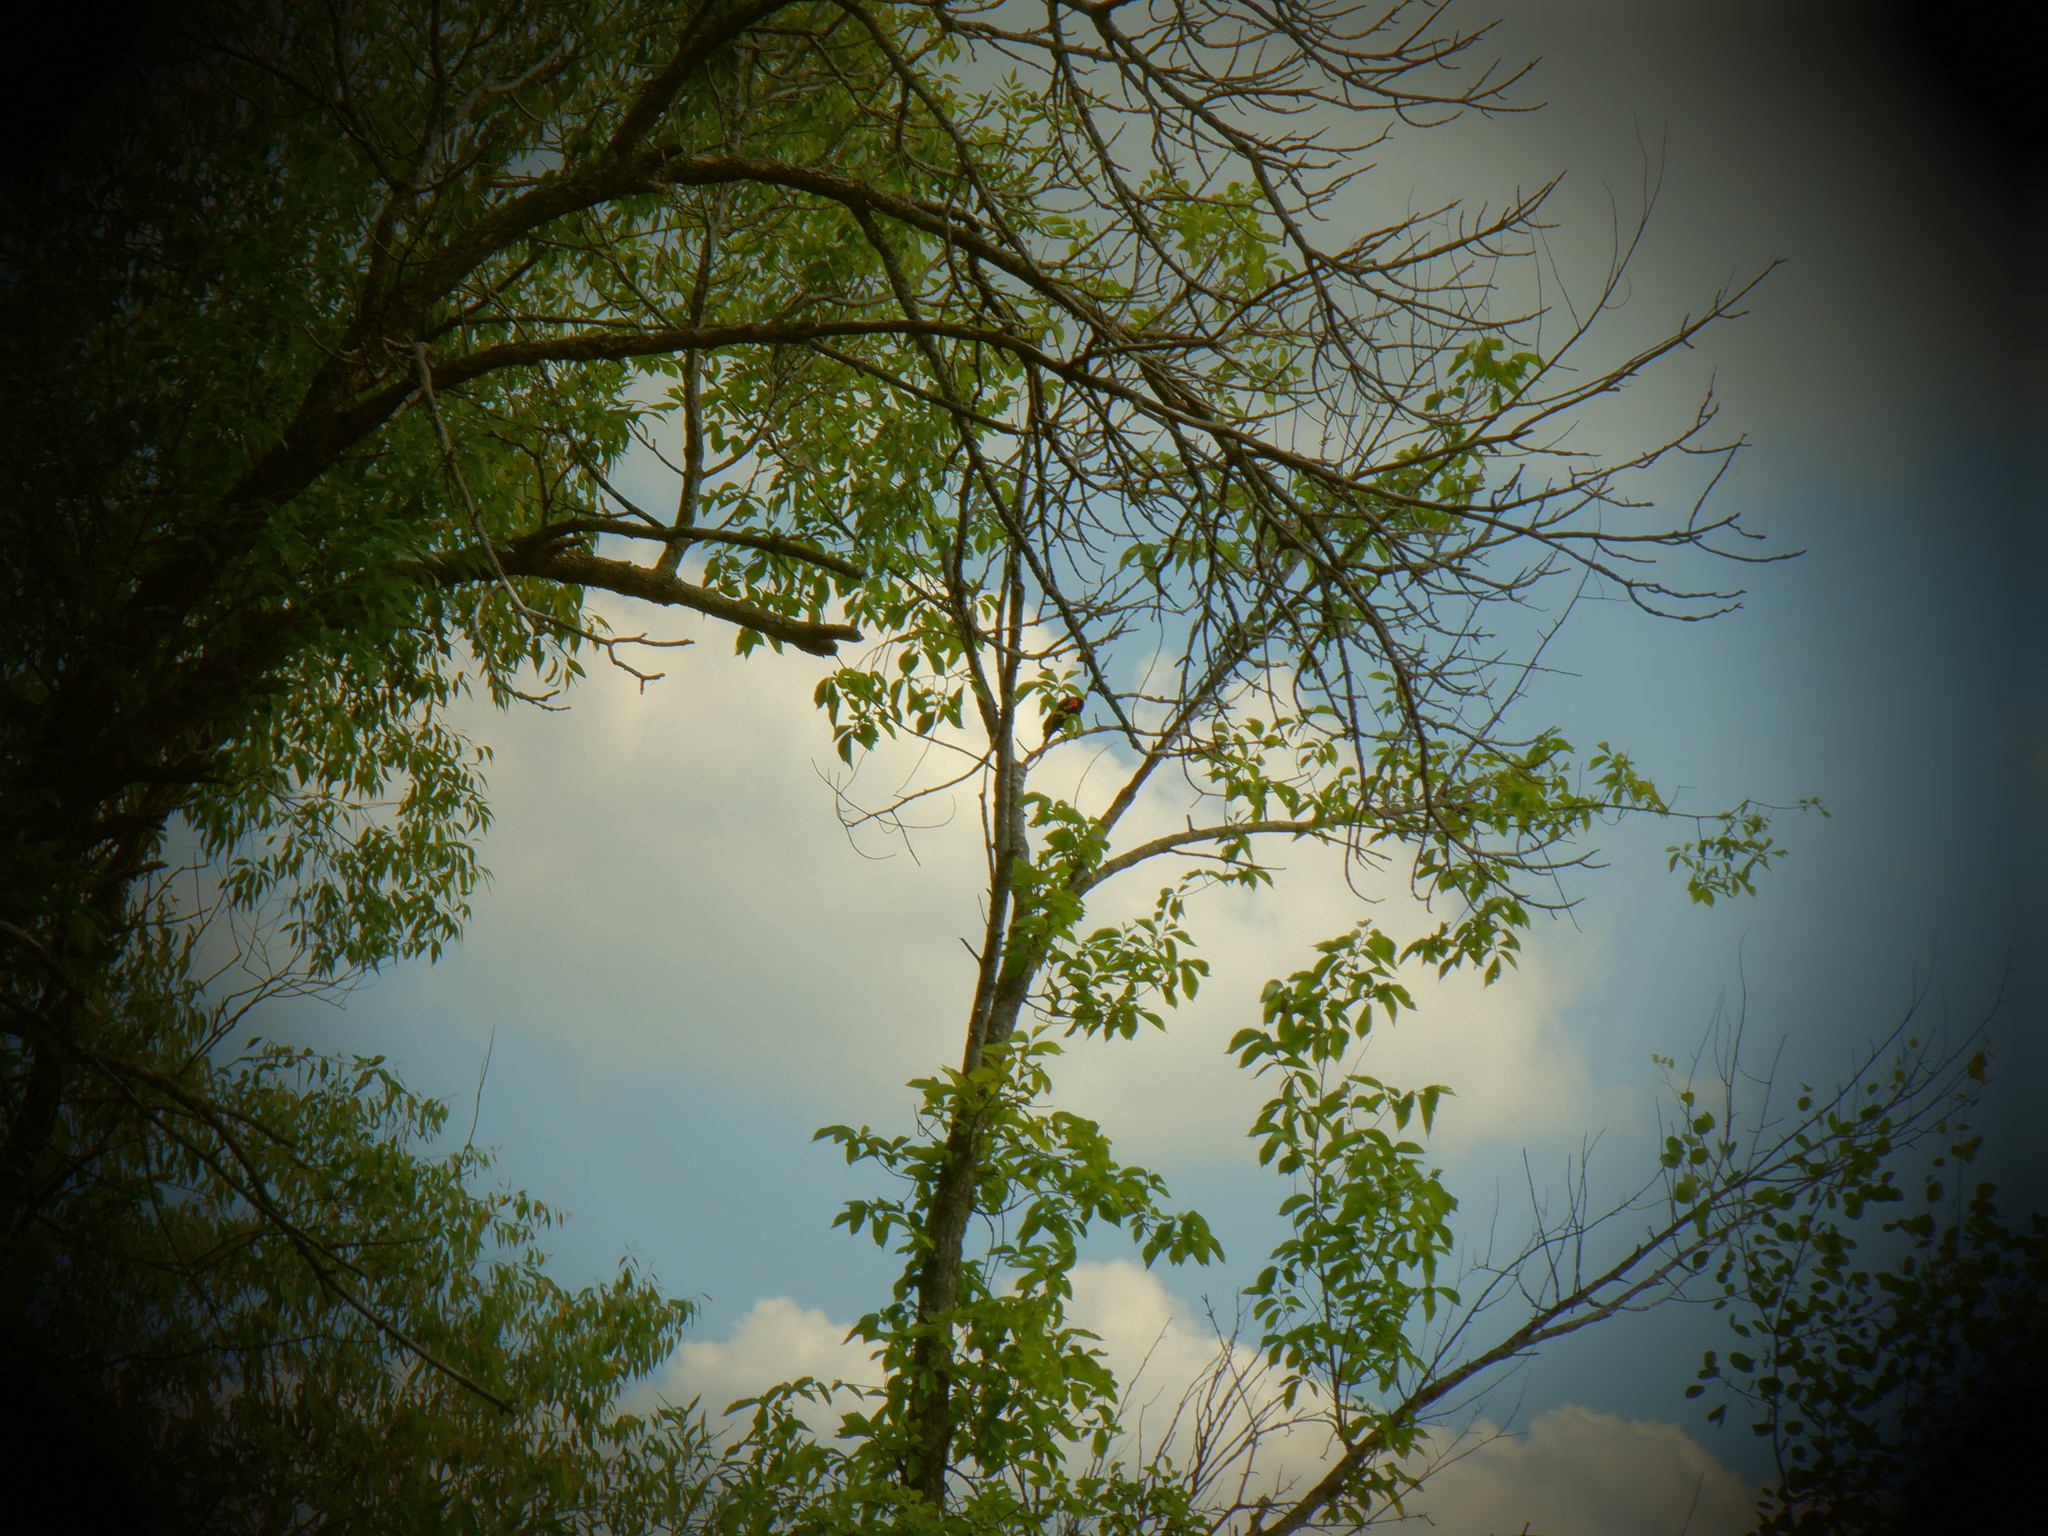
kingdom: Animalia
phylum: Chordata
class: Aves
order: Passeriformes
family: Icteridae
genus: Agelaius
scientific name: Agelaius phoeniceus
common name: Red-winged blackbird
